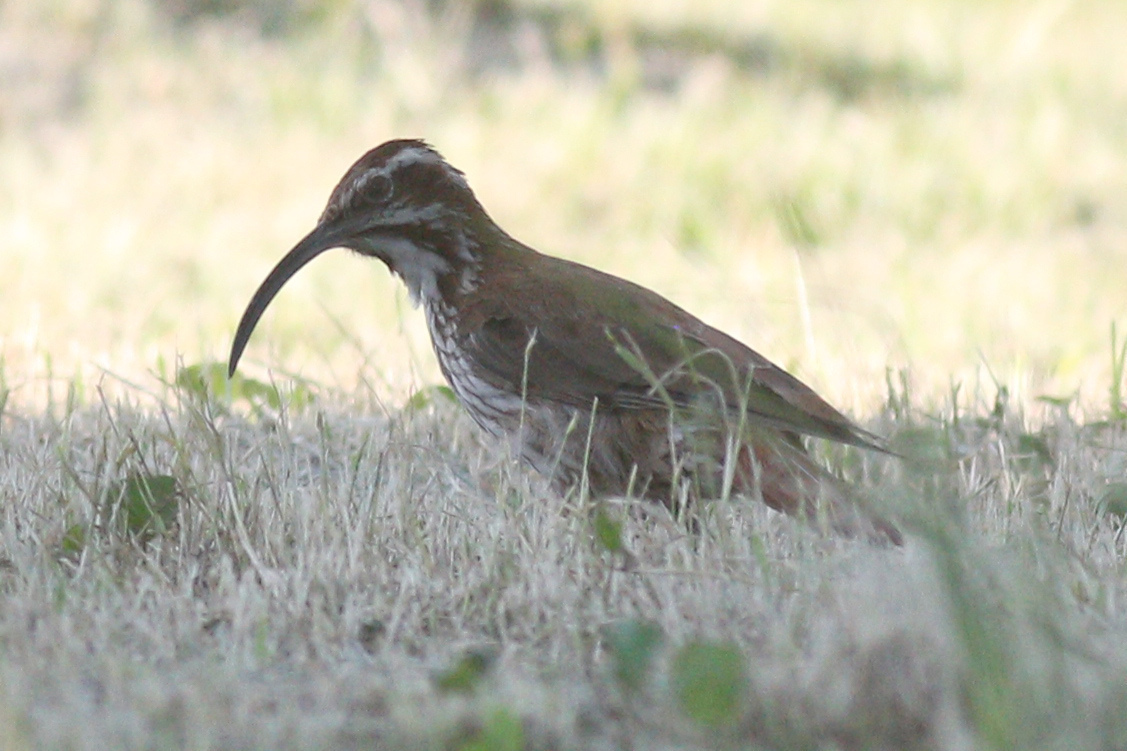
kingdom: Animalia
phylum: Chordata
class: Aves
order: Passeriformes
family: Furnariidae
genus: Drymornis
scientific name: Drymornis bridgesii
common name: Scimitar-billed woodcreeper
